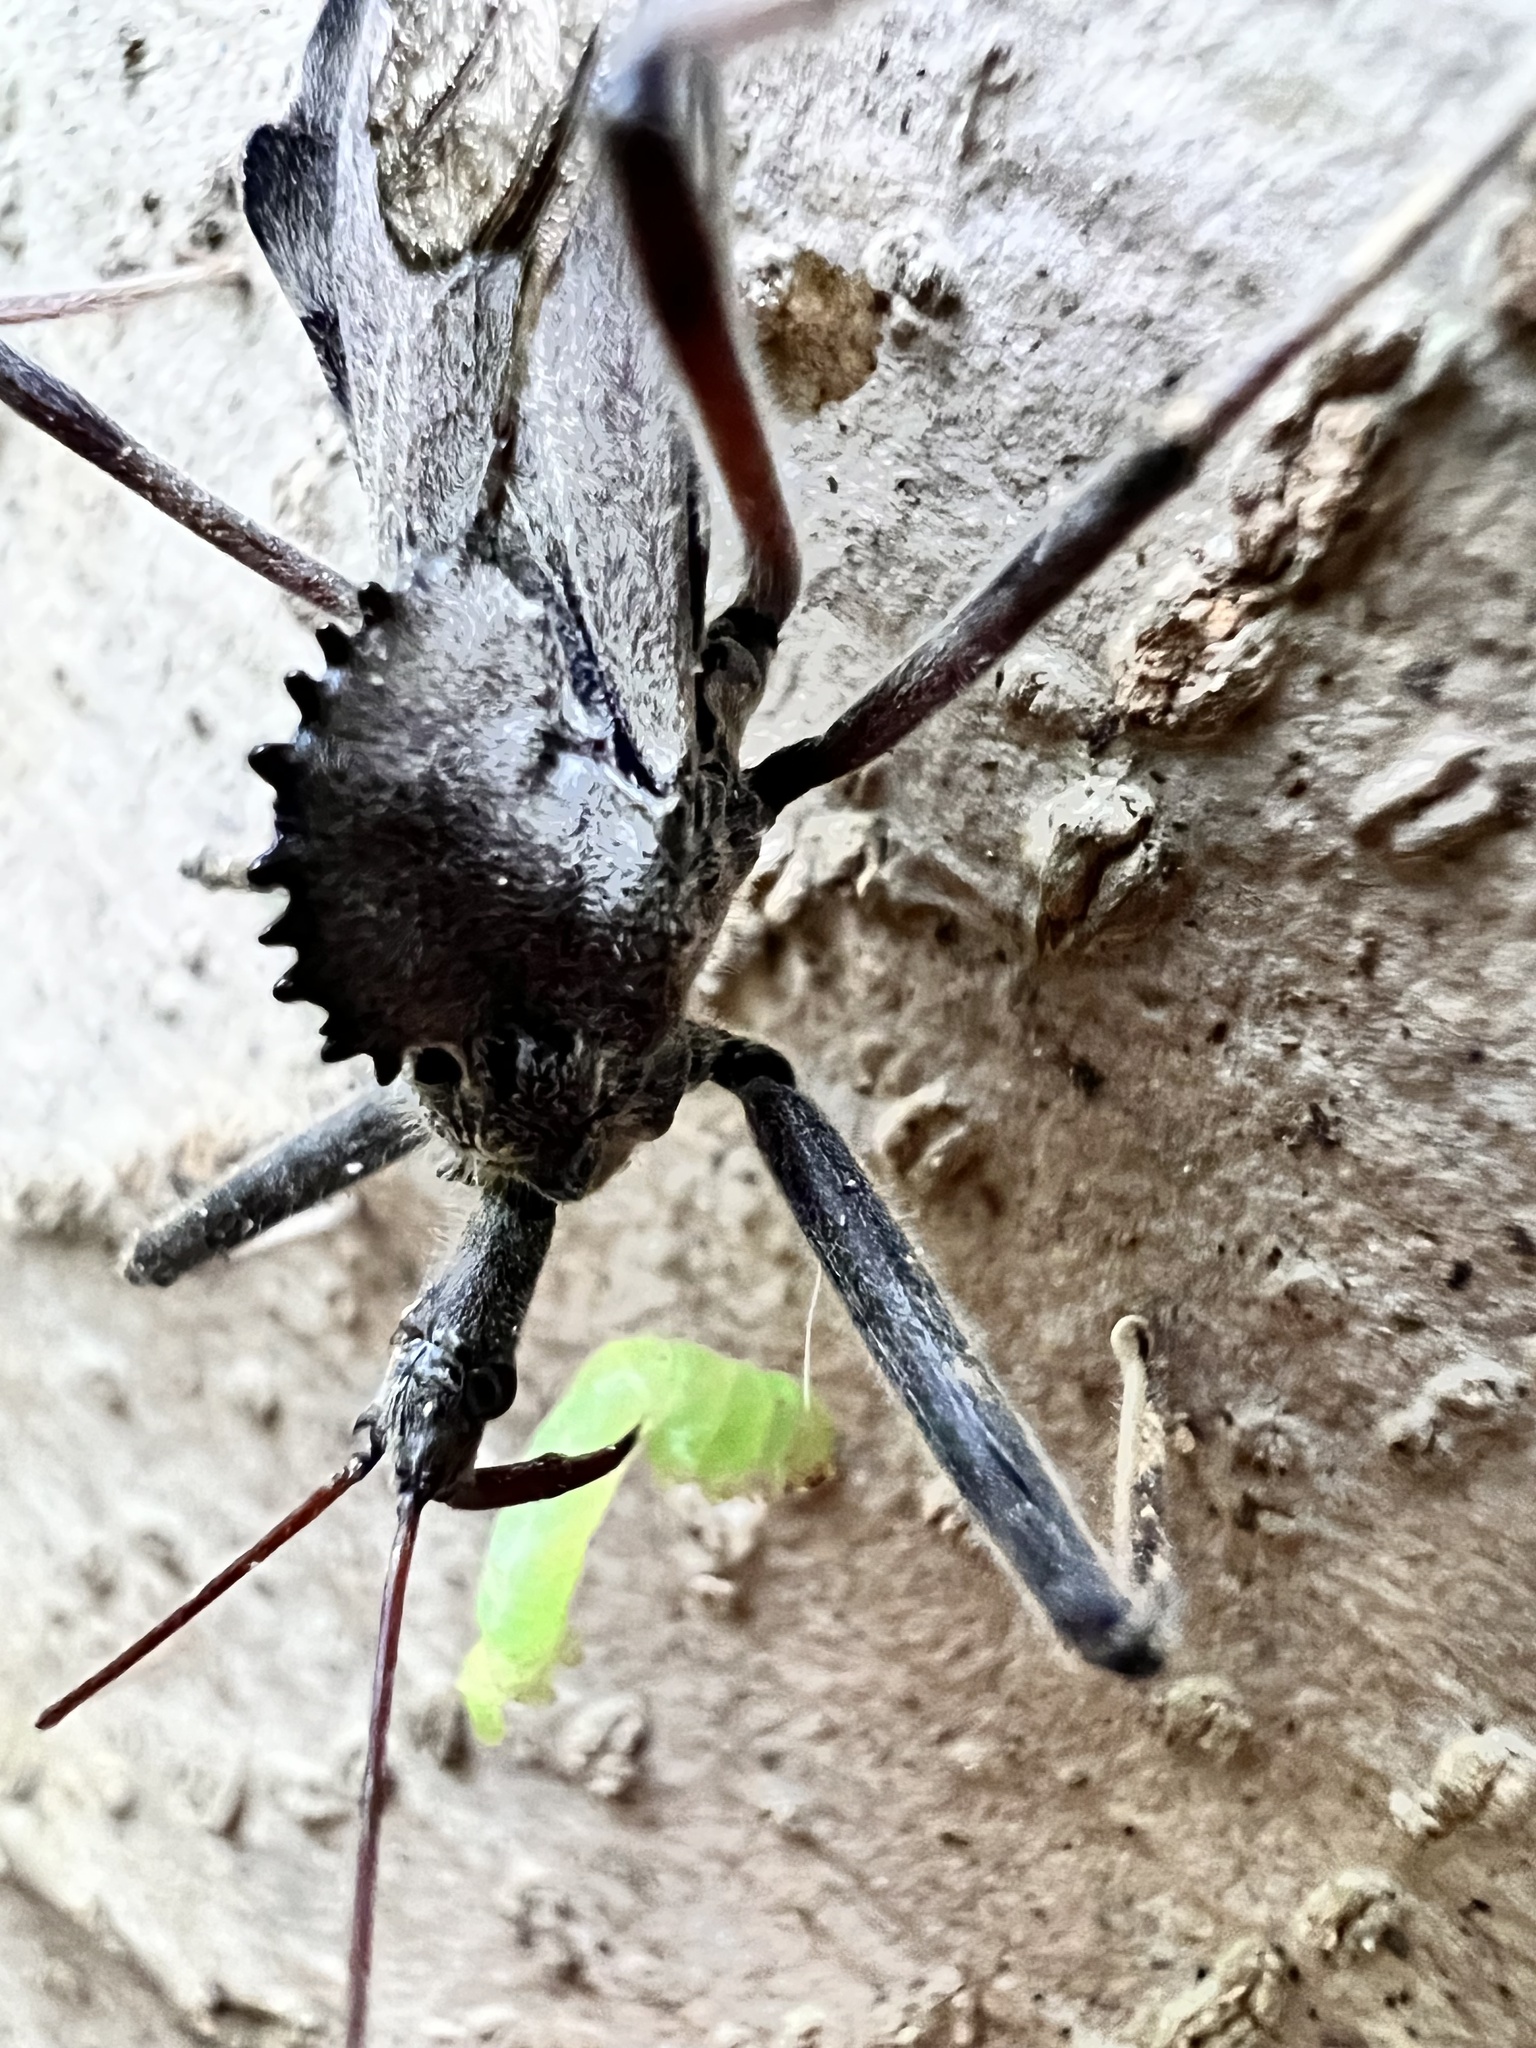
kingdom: Animalia
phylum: Arthropoda
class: Insecta
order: Hemiptera
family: Reduviidae
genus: Arilus
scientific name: Arilus cristatus
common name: North american wheel bug
